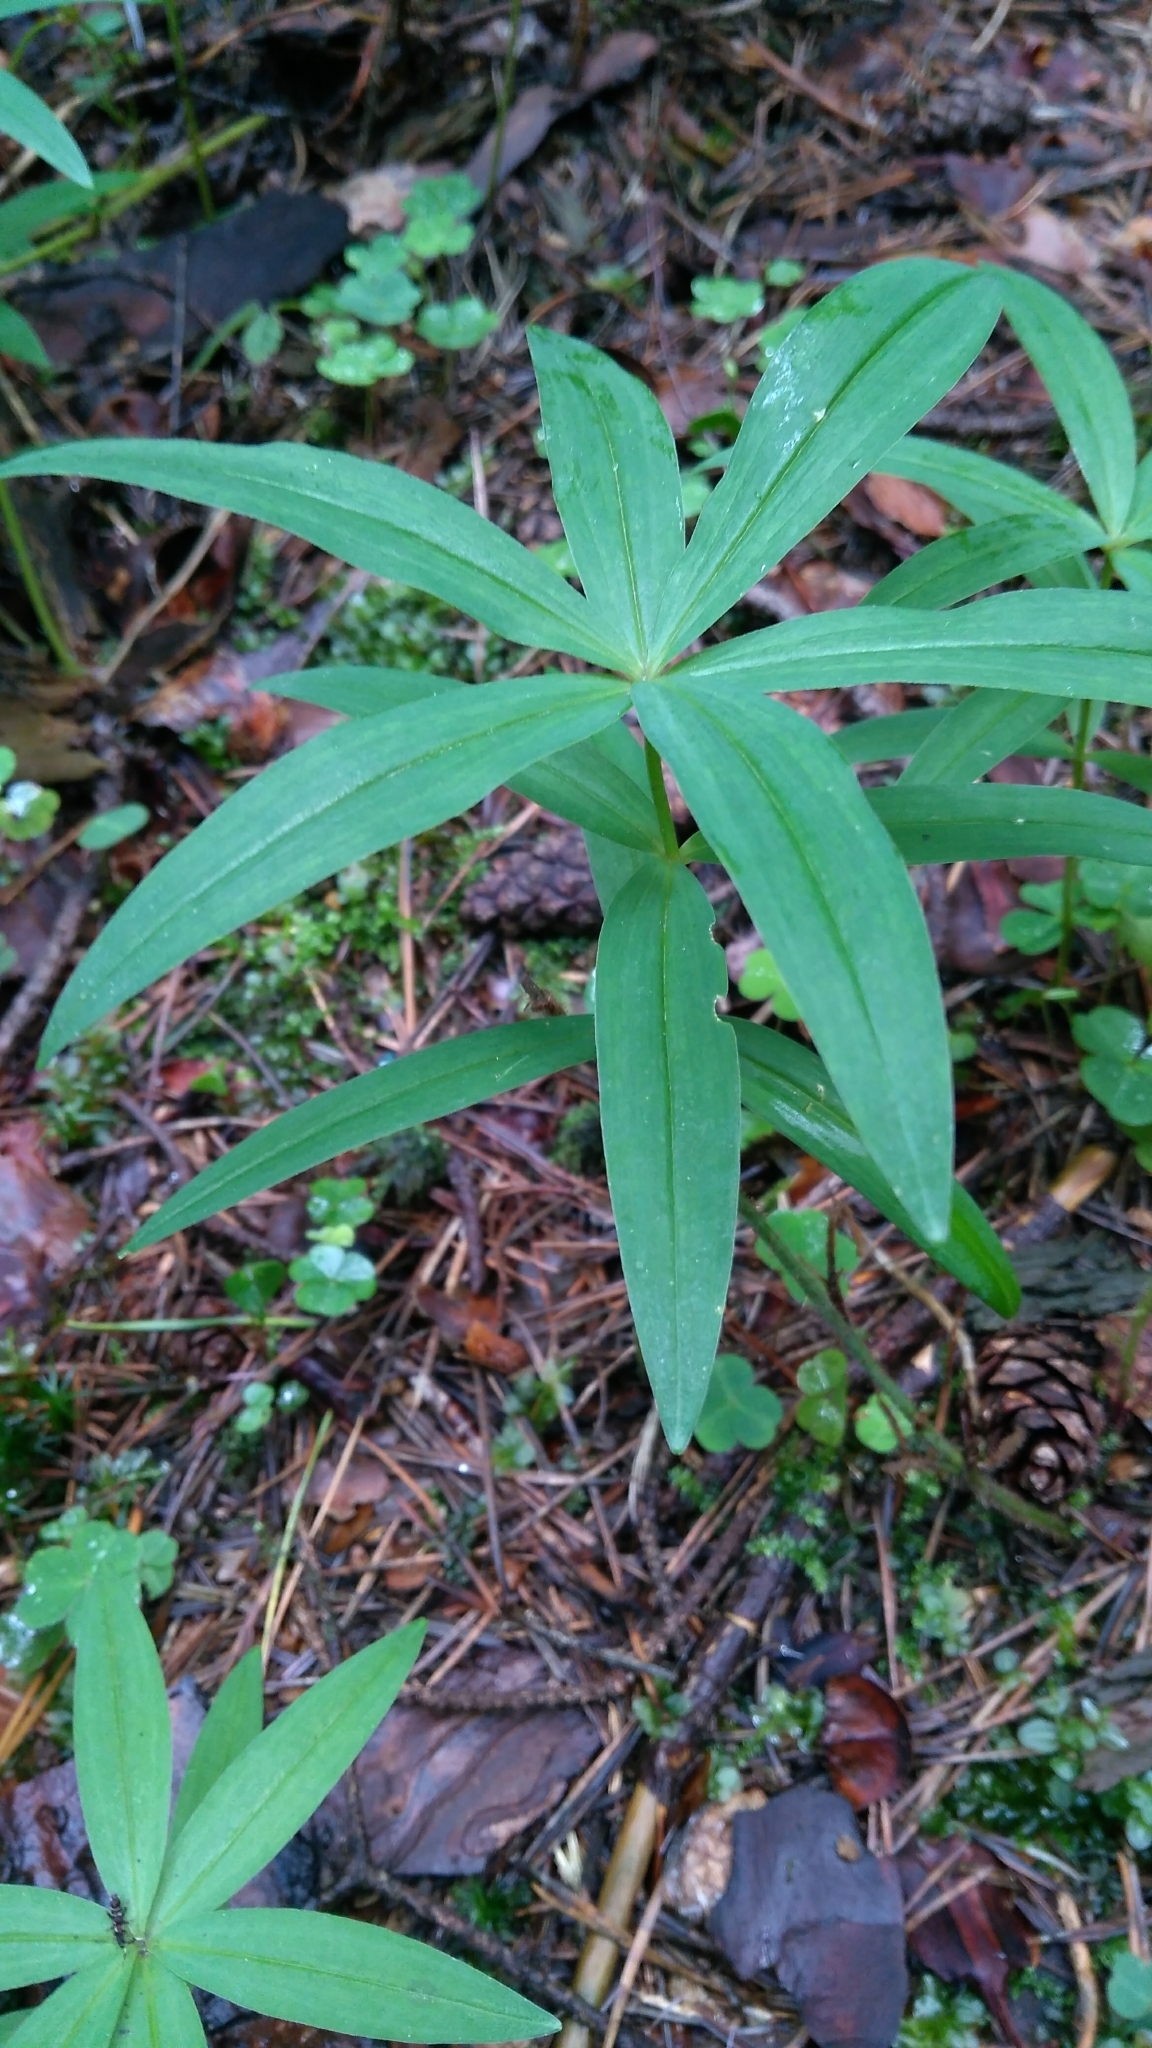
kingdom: Plantae
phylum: Tracheophyta
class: Liliopsida
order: Asparagales
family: Asparagaceae
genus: Polygonatum
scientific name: Polygonatum verticillatum
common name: Whorled solomon's-seal
